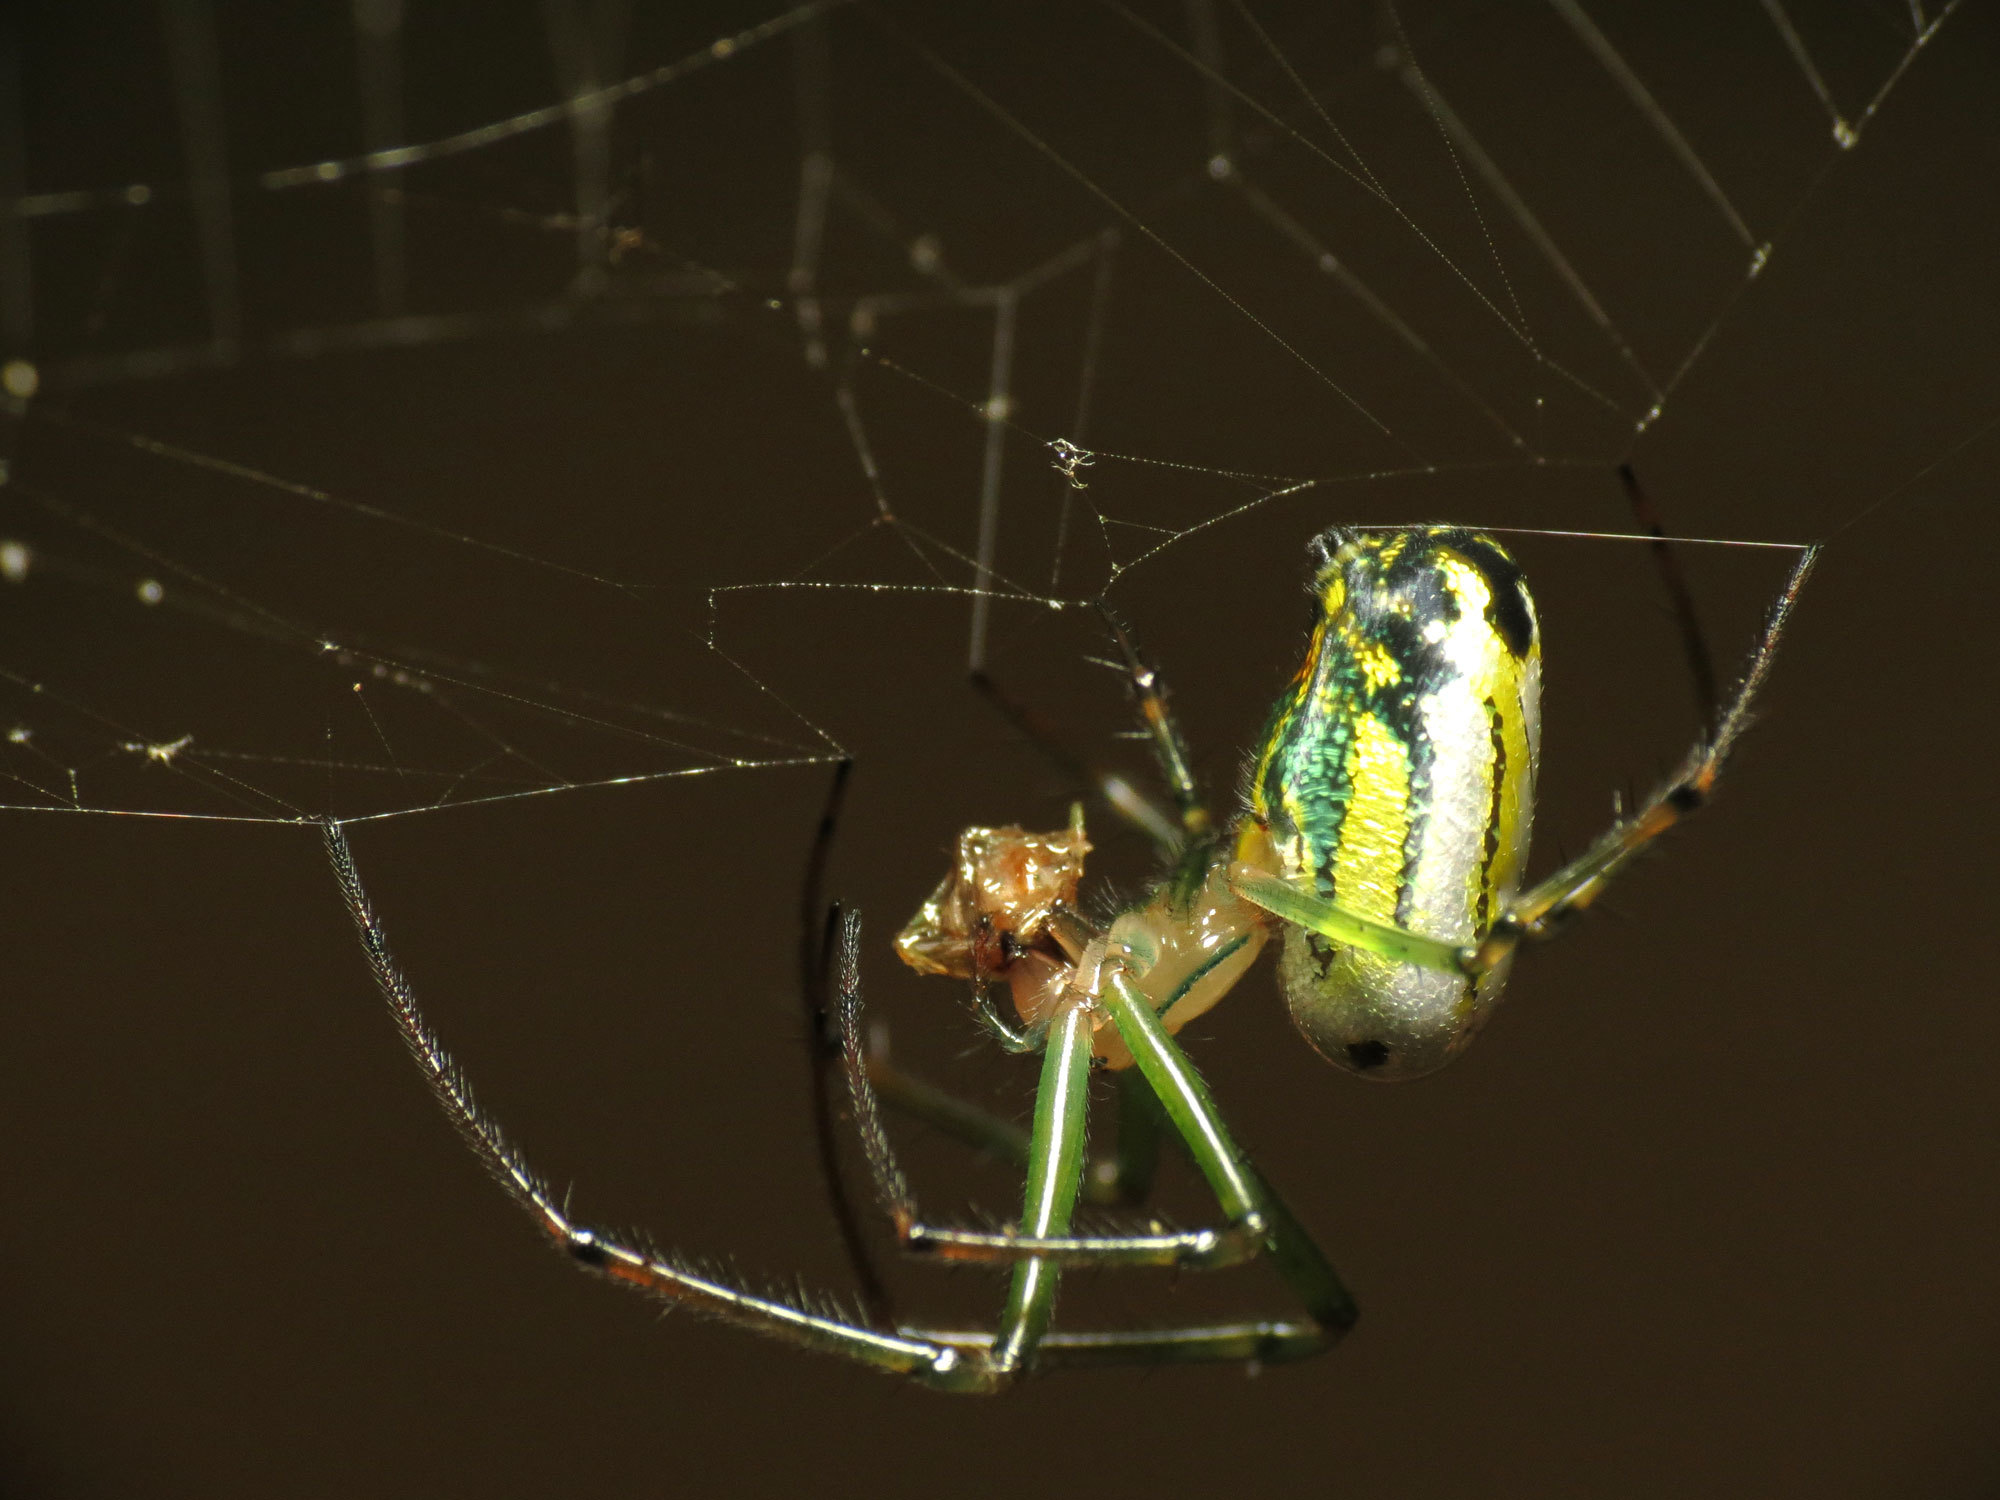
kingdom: Animalia
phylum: Arthropoda
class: Arachnida
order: Araneae
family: Tetragnathidae
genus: Leucauge
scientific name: Leucauge venusta
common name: Longjawed orb weavers
